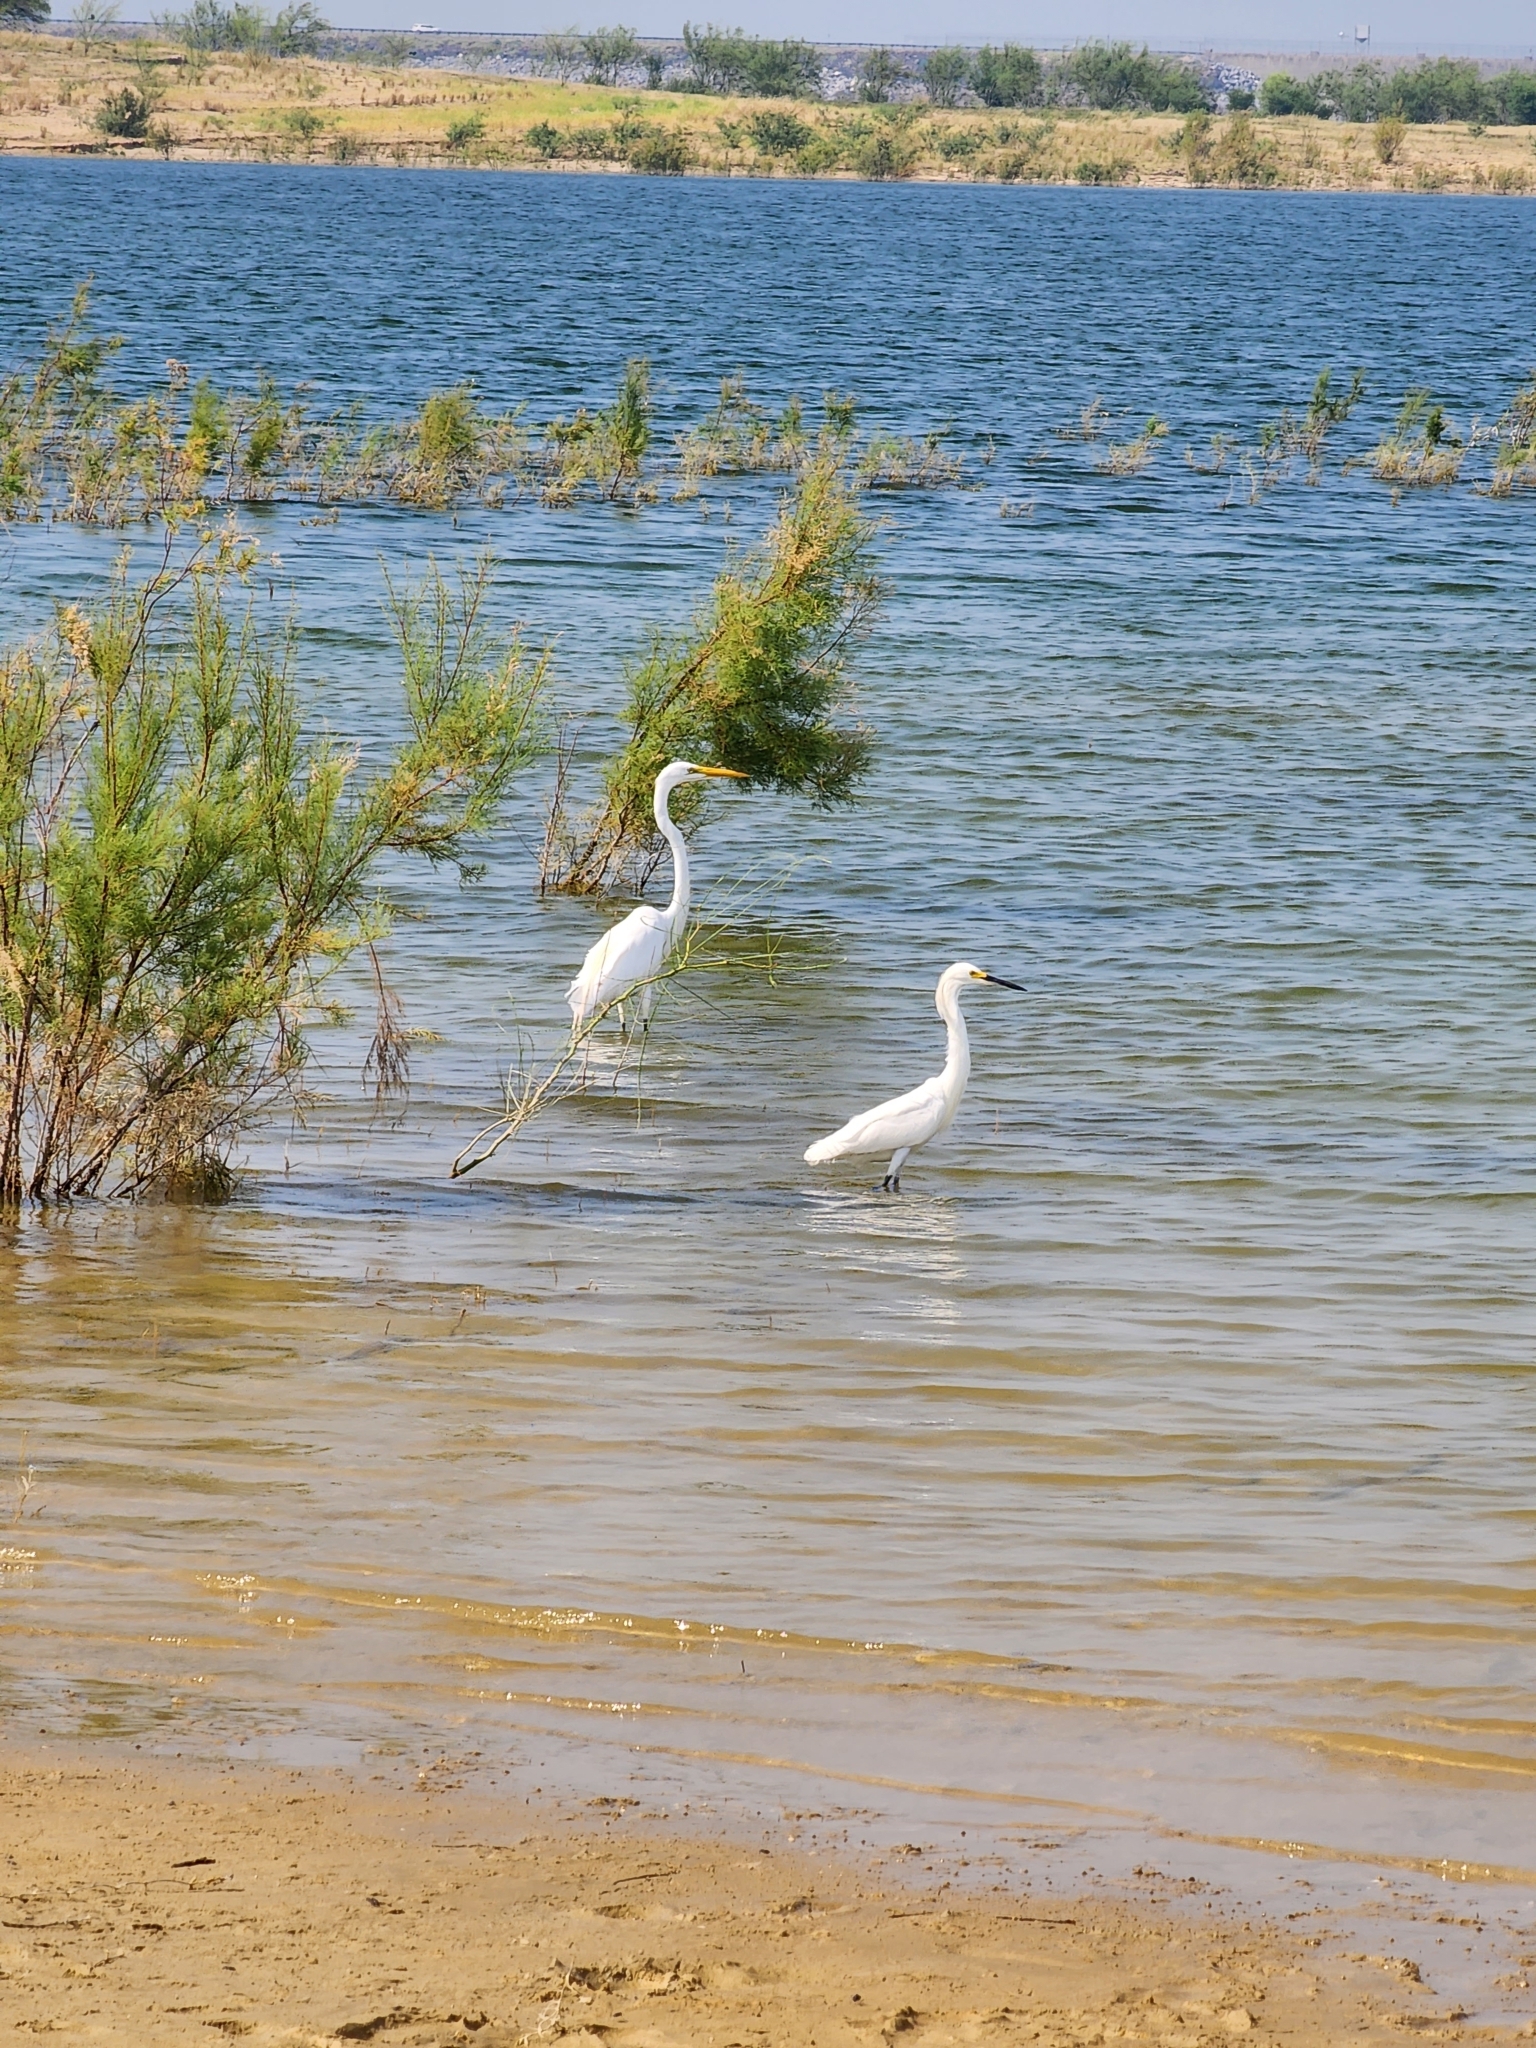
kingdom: Animalia
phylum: Chordata
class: Aves
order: Pelecaniformes
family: Ardeidae
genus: Egretta
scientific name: Egretta thula
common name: Snowy egret
